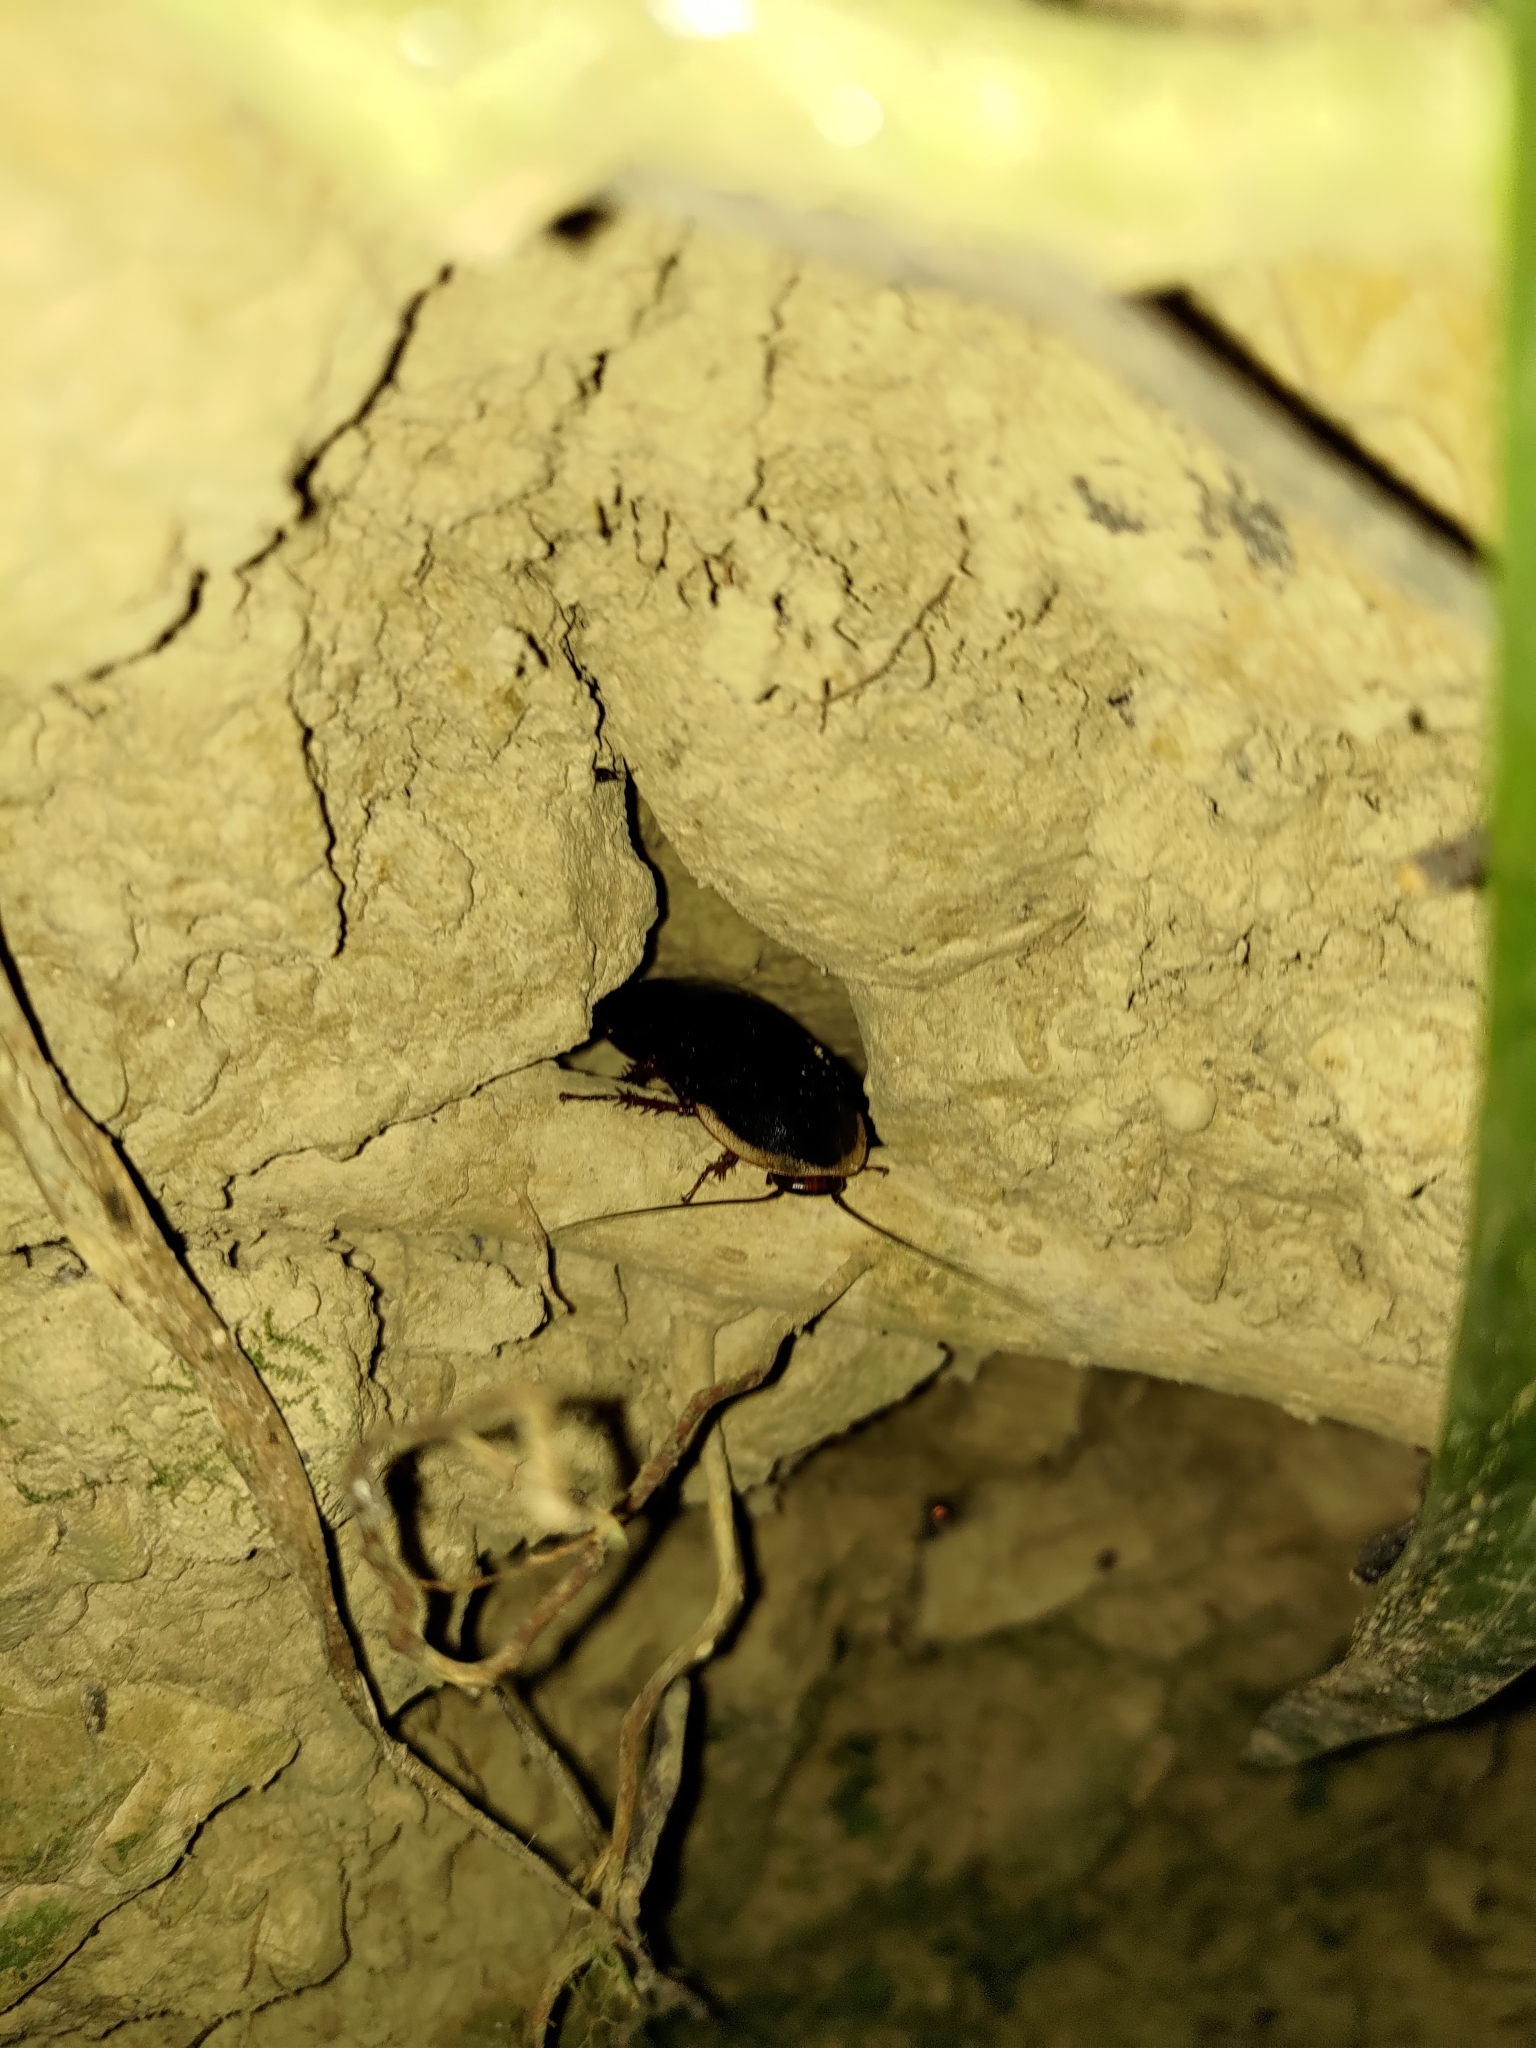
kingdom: Animalia
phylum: Arthropoda
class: Insecta
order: Blattodea
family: Blaberidae
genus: Opisthoplatia
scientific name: Opisthoplatia orientalis
